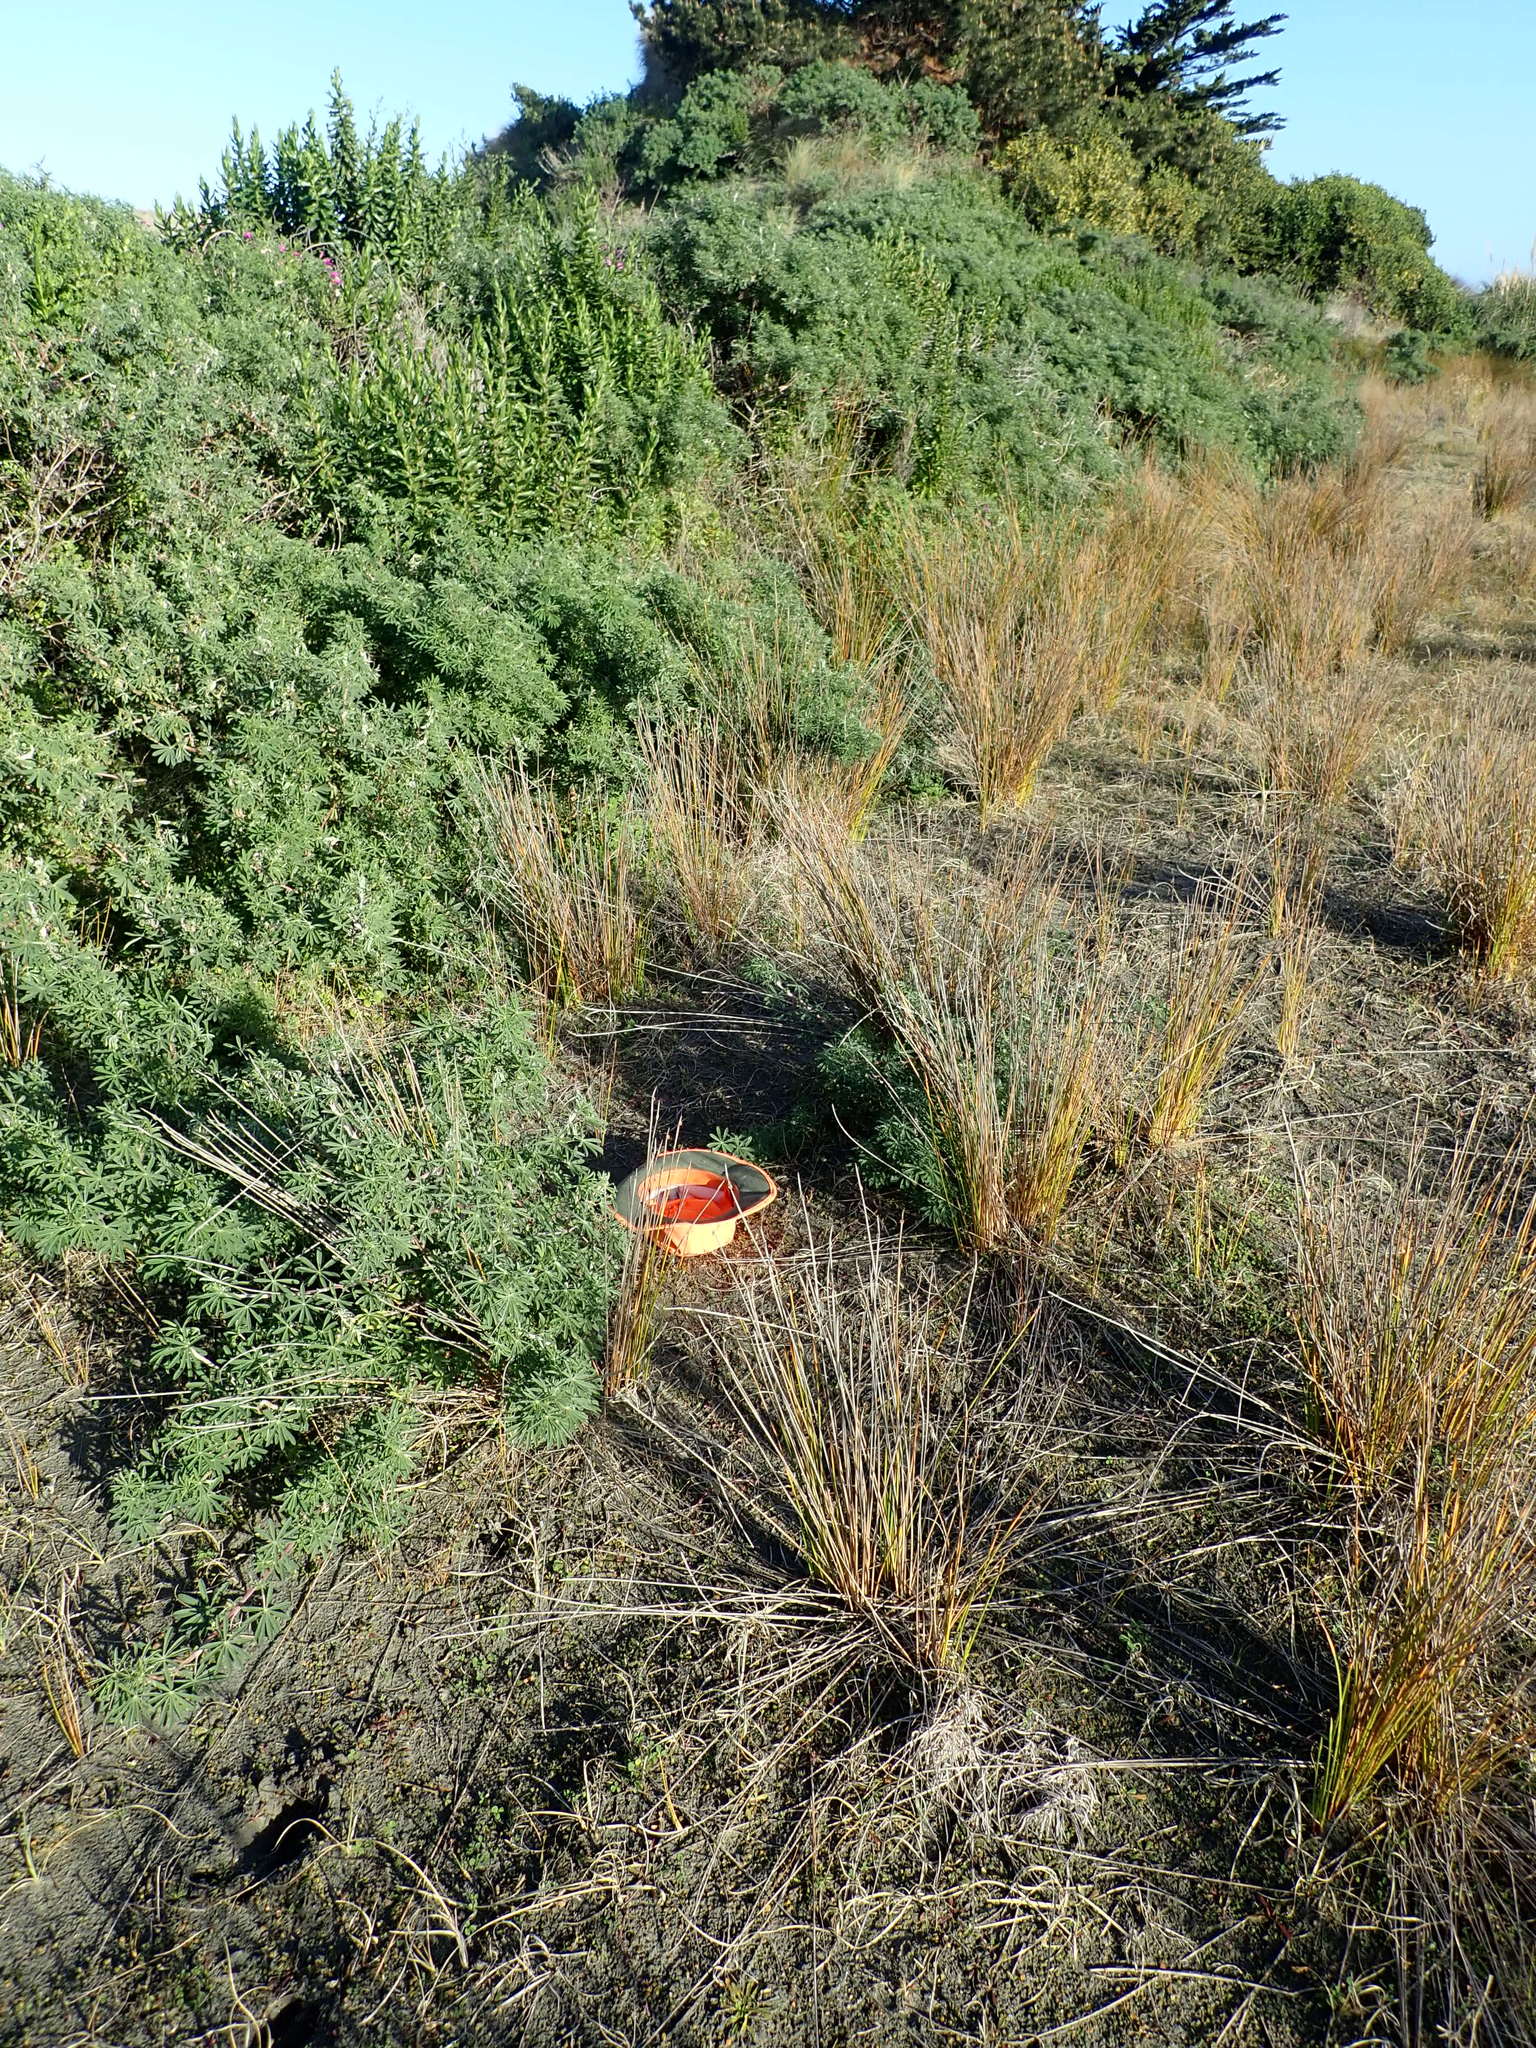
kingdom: Plantae
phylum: Tracheophyta
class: Magnoliopsida
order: Asterales
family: Campanulaceae
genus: Lobelia
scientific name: Lobelia anceps
